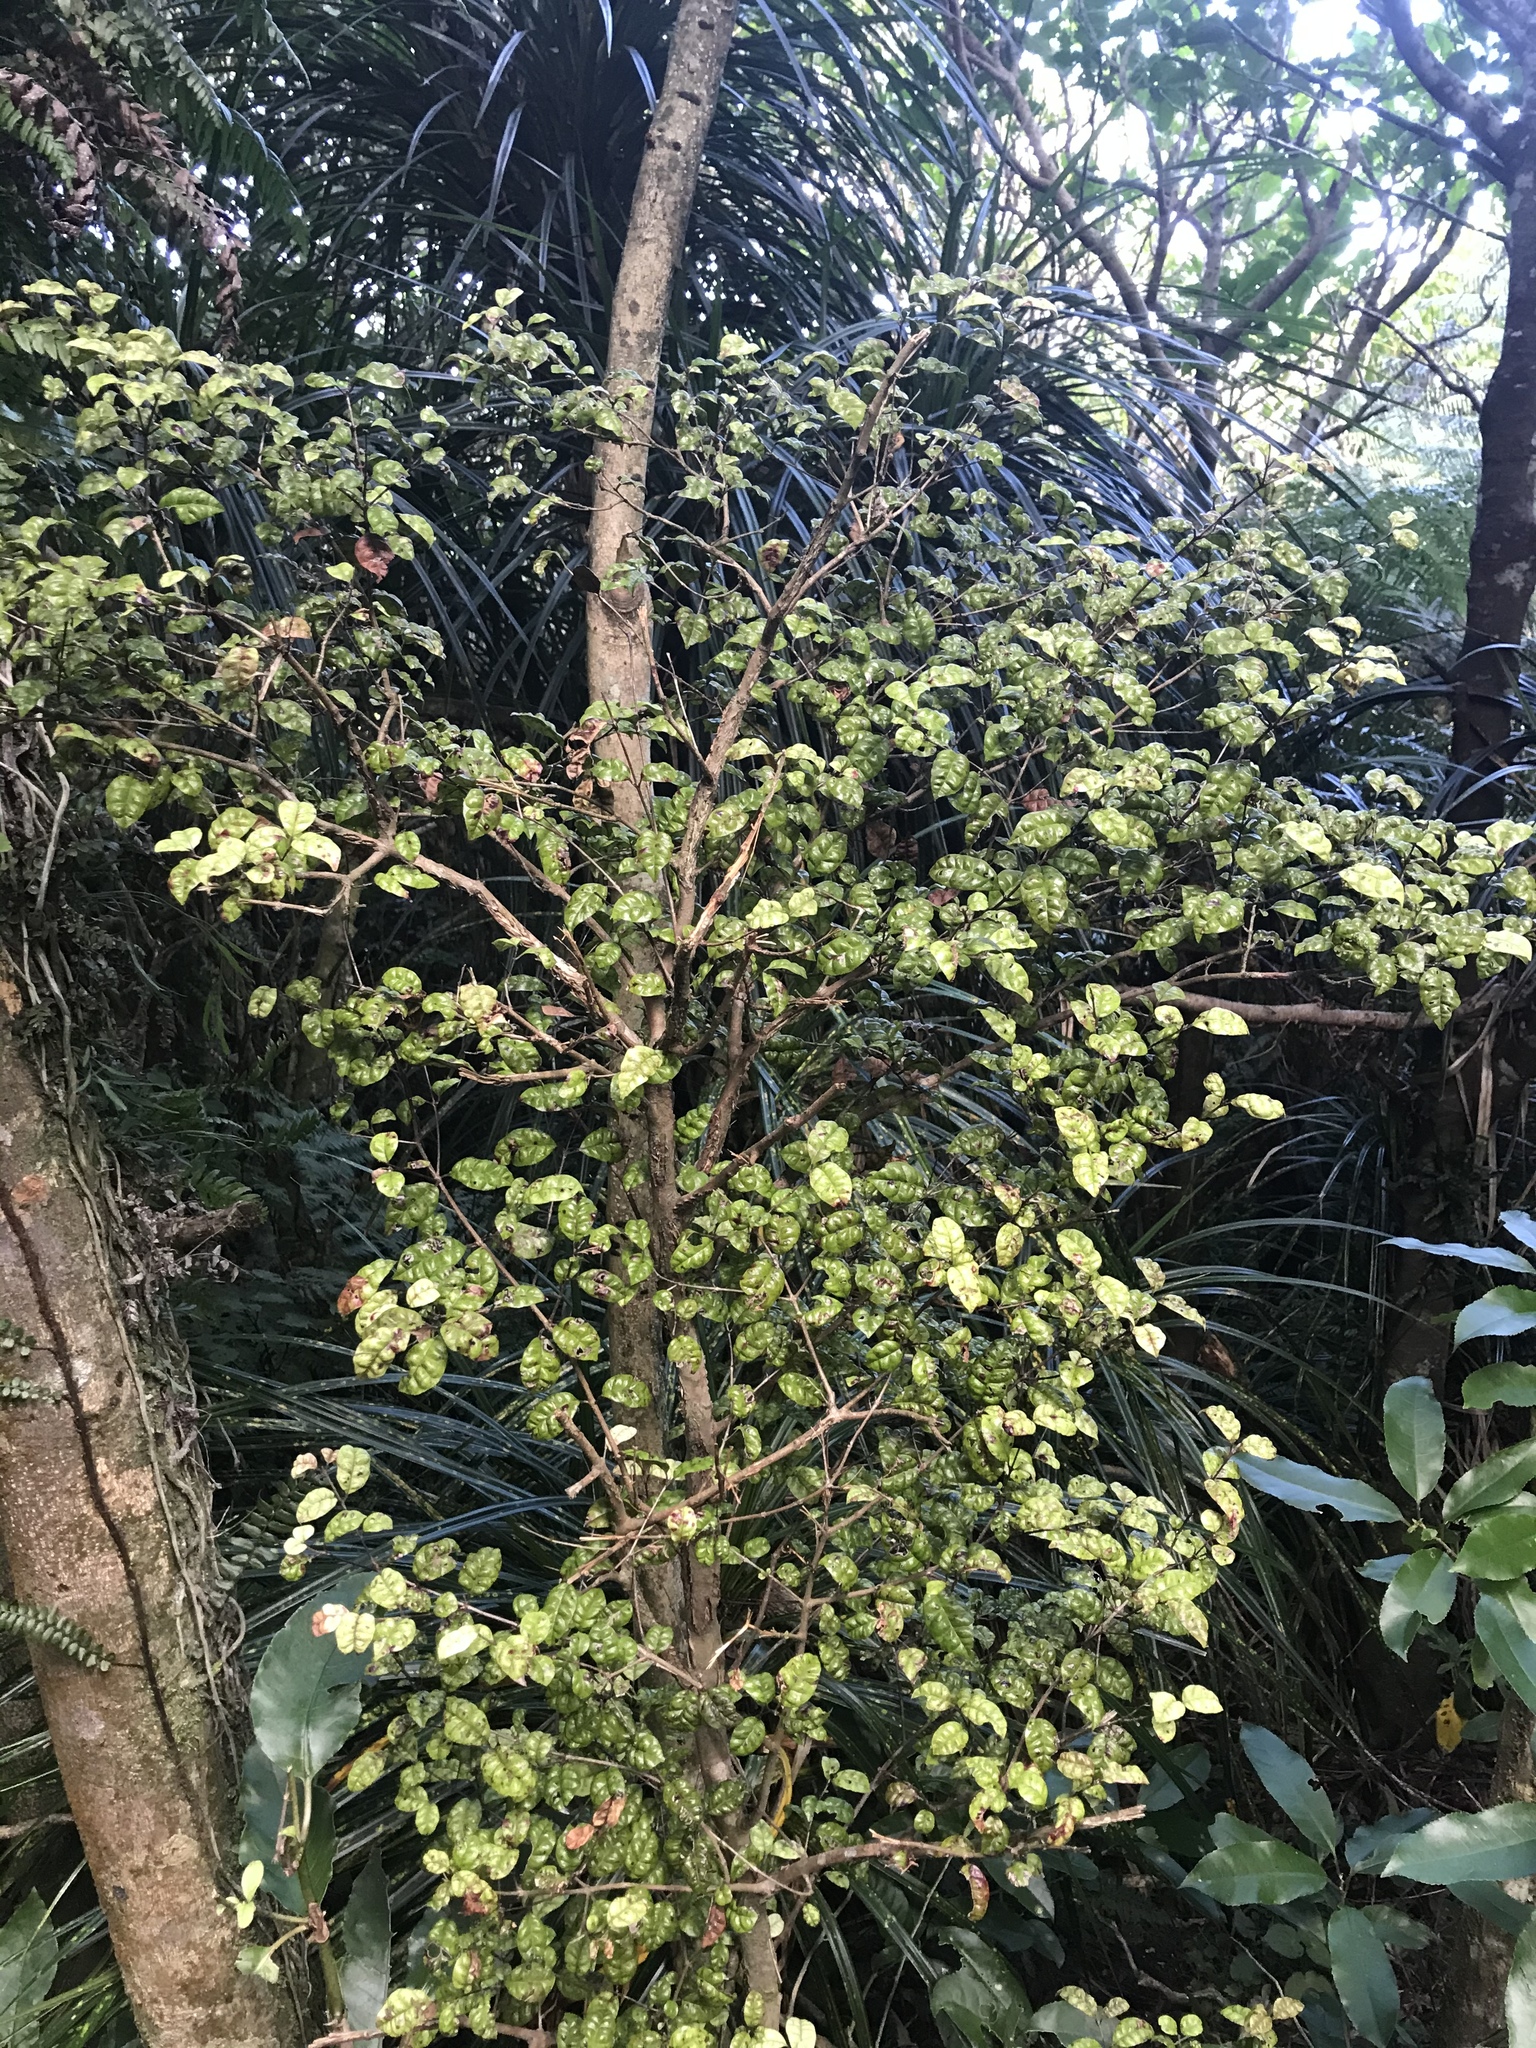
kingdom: Plantae
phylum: Tracheophyta
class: Magnoliopsida
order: Myrtales
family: Myrtaceae
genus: Lophomyrtus
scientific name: Lophomyrtus bullata
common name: Rama rama
